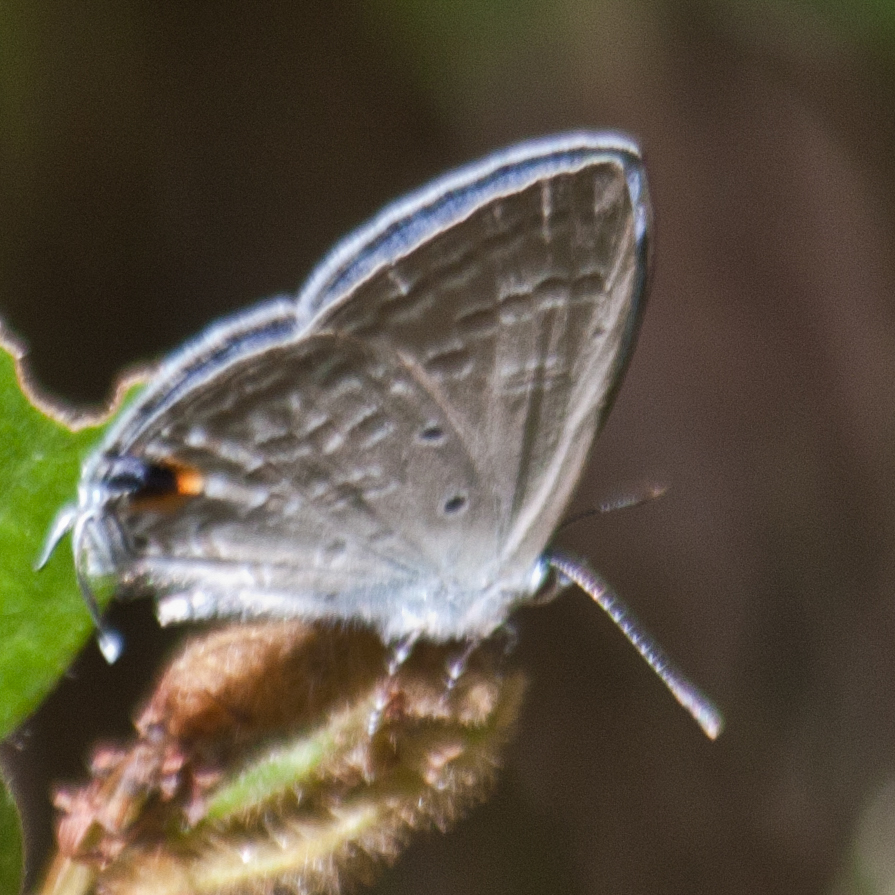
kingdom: Animalia
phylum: Arthropoda
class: Insecta
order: Lepidoptera
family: Lycaenidae
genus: Catochrysops
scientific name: Catochrysops strabo
